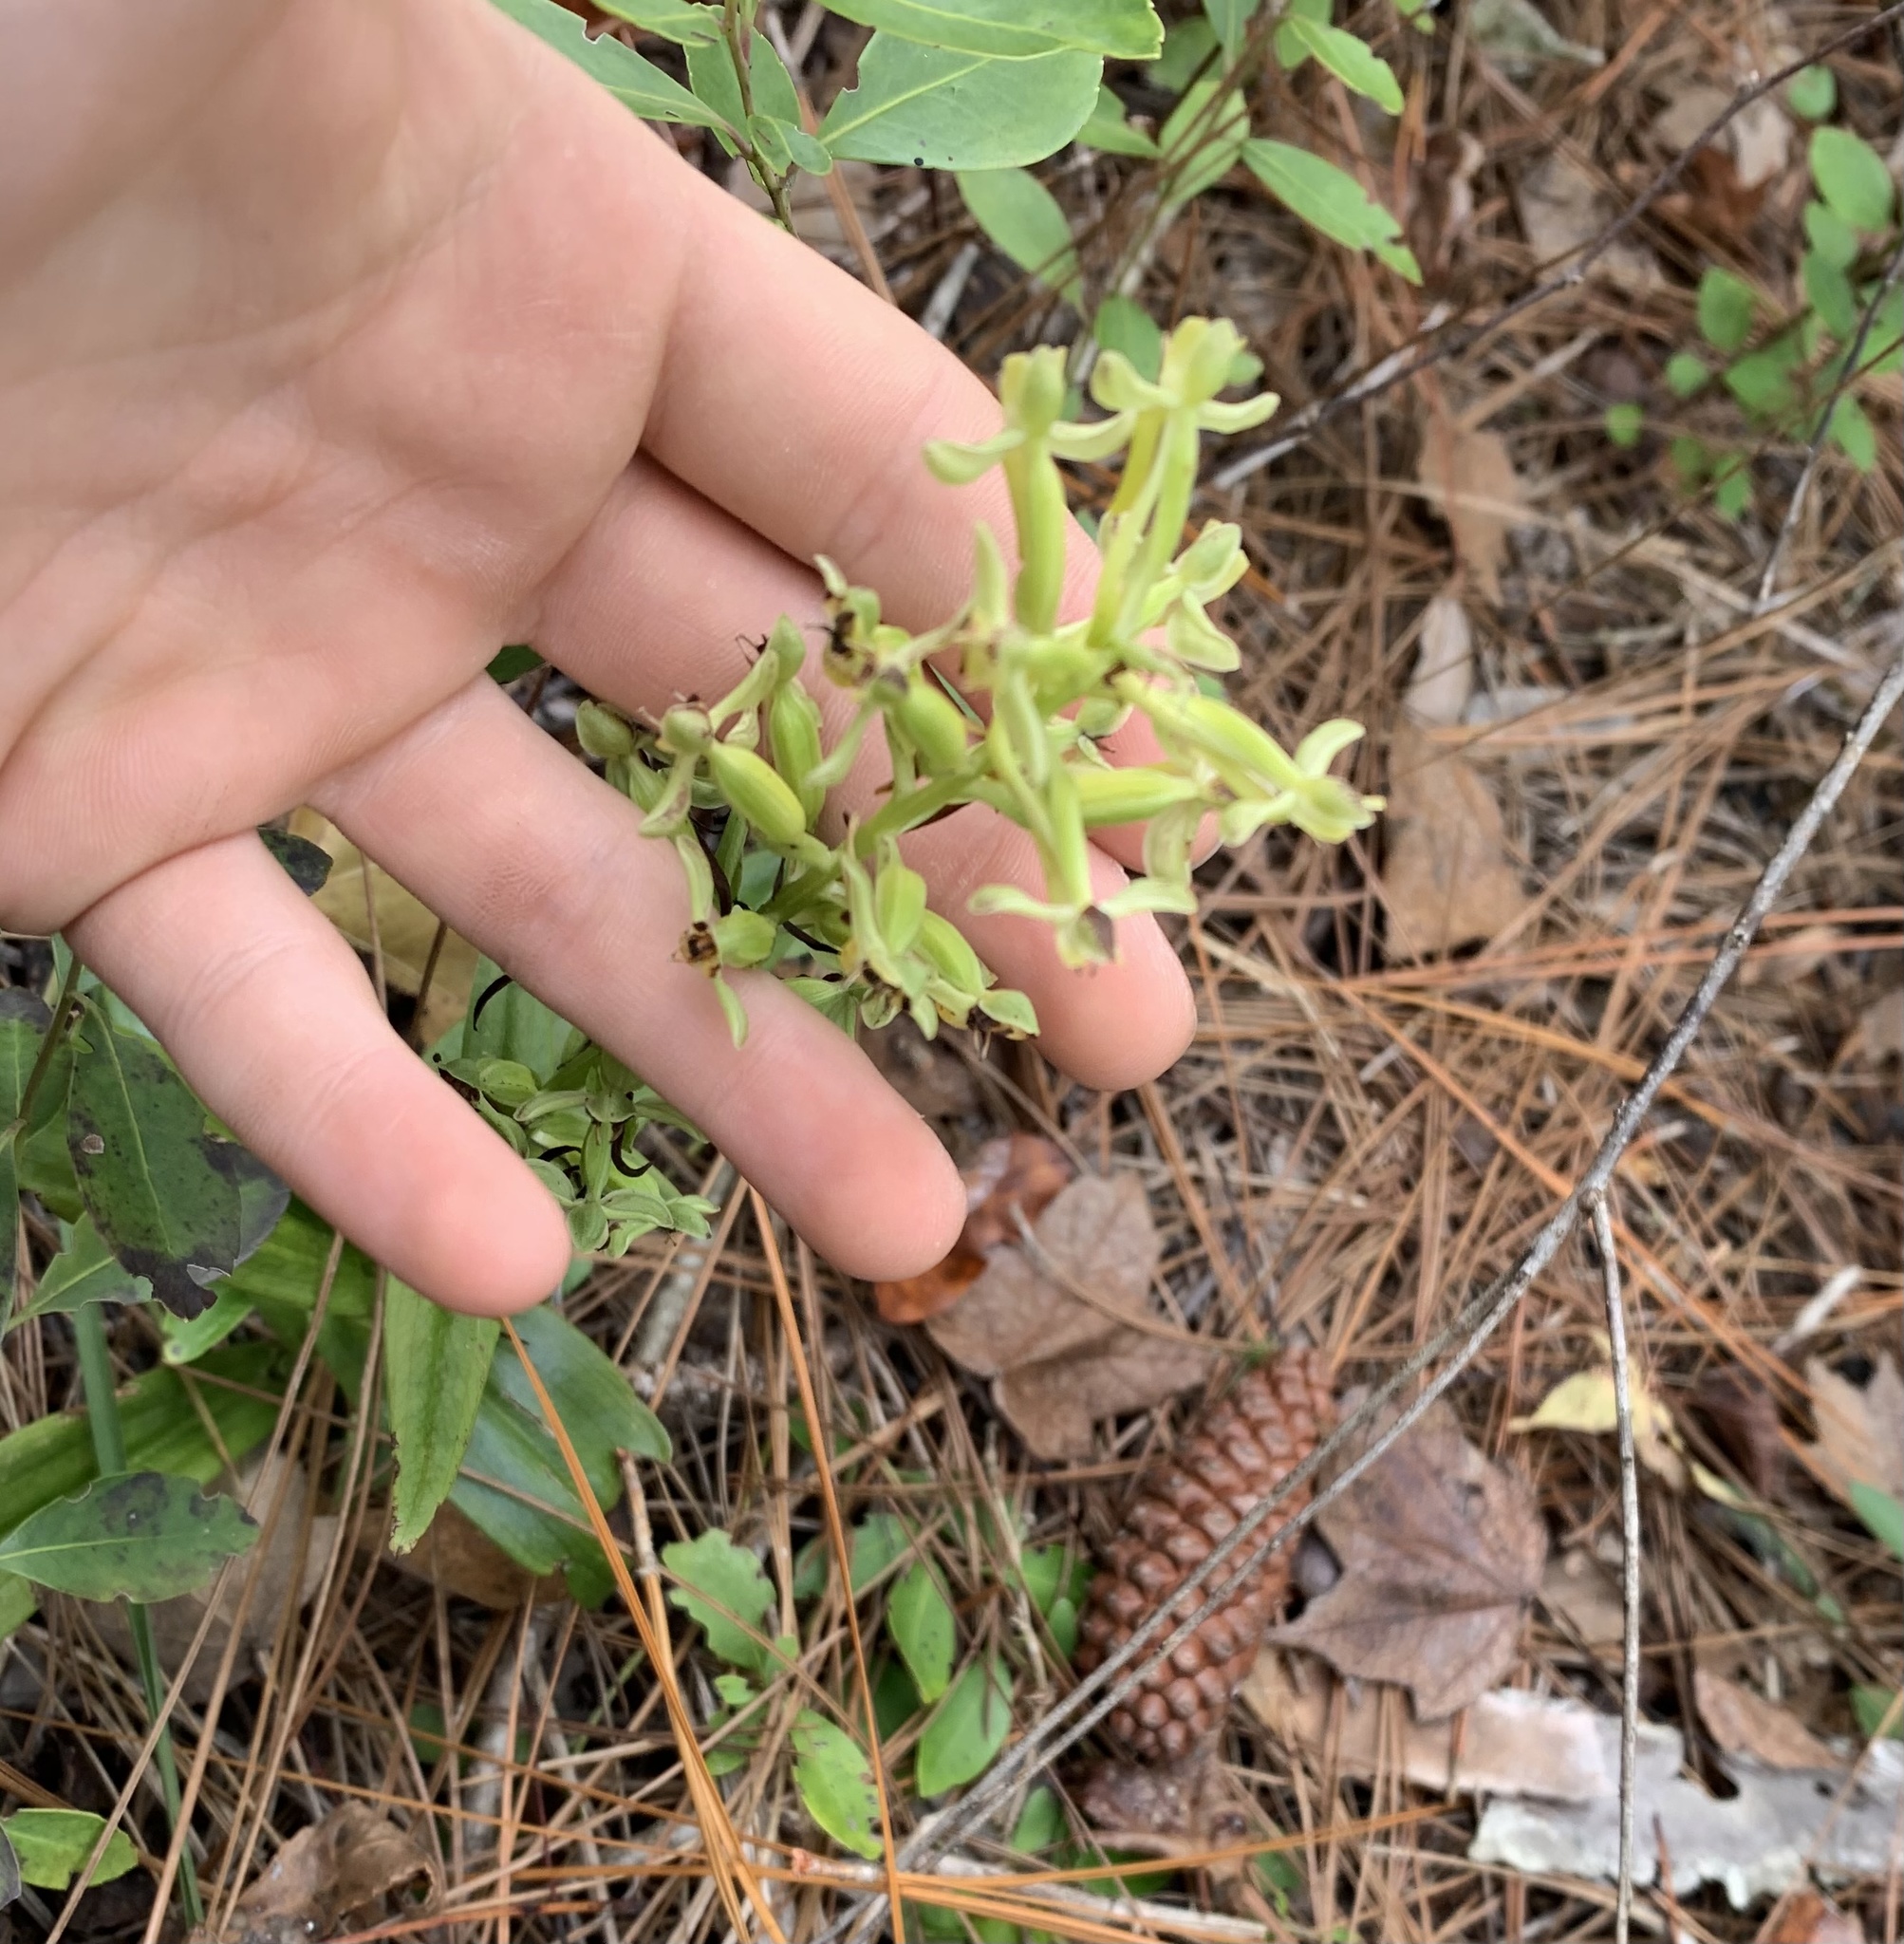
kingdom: Plantae
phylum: Tracheophyta
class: Liliopsida
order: Asparagales
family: Orchidaceae
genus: Habenaria
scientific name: Habenaria floribunda
